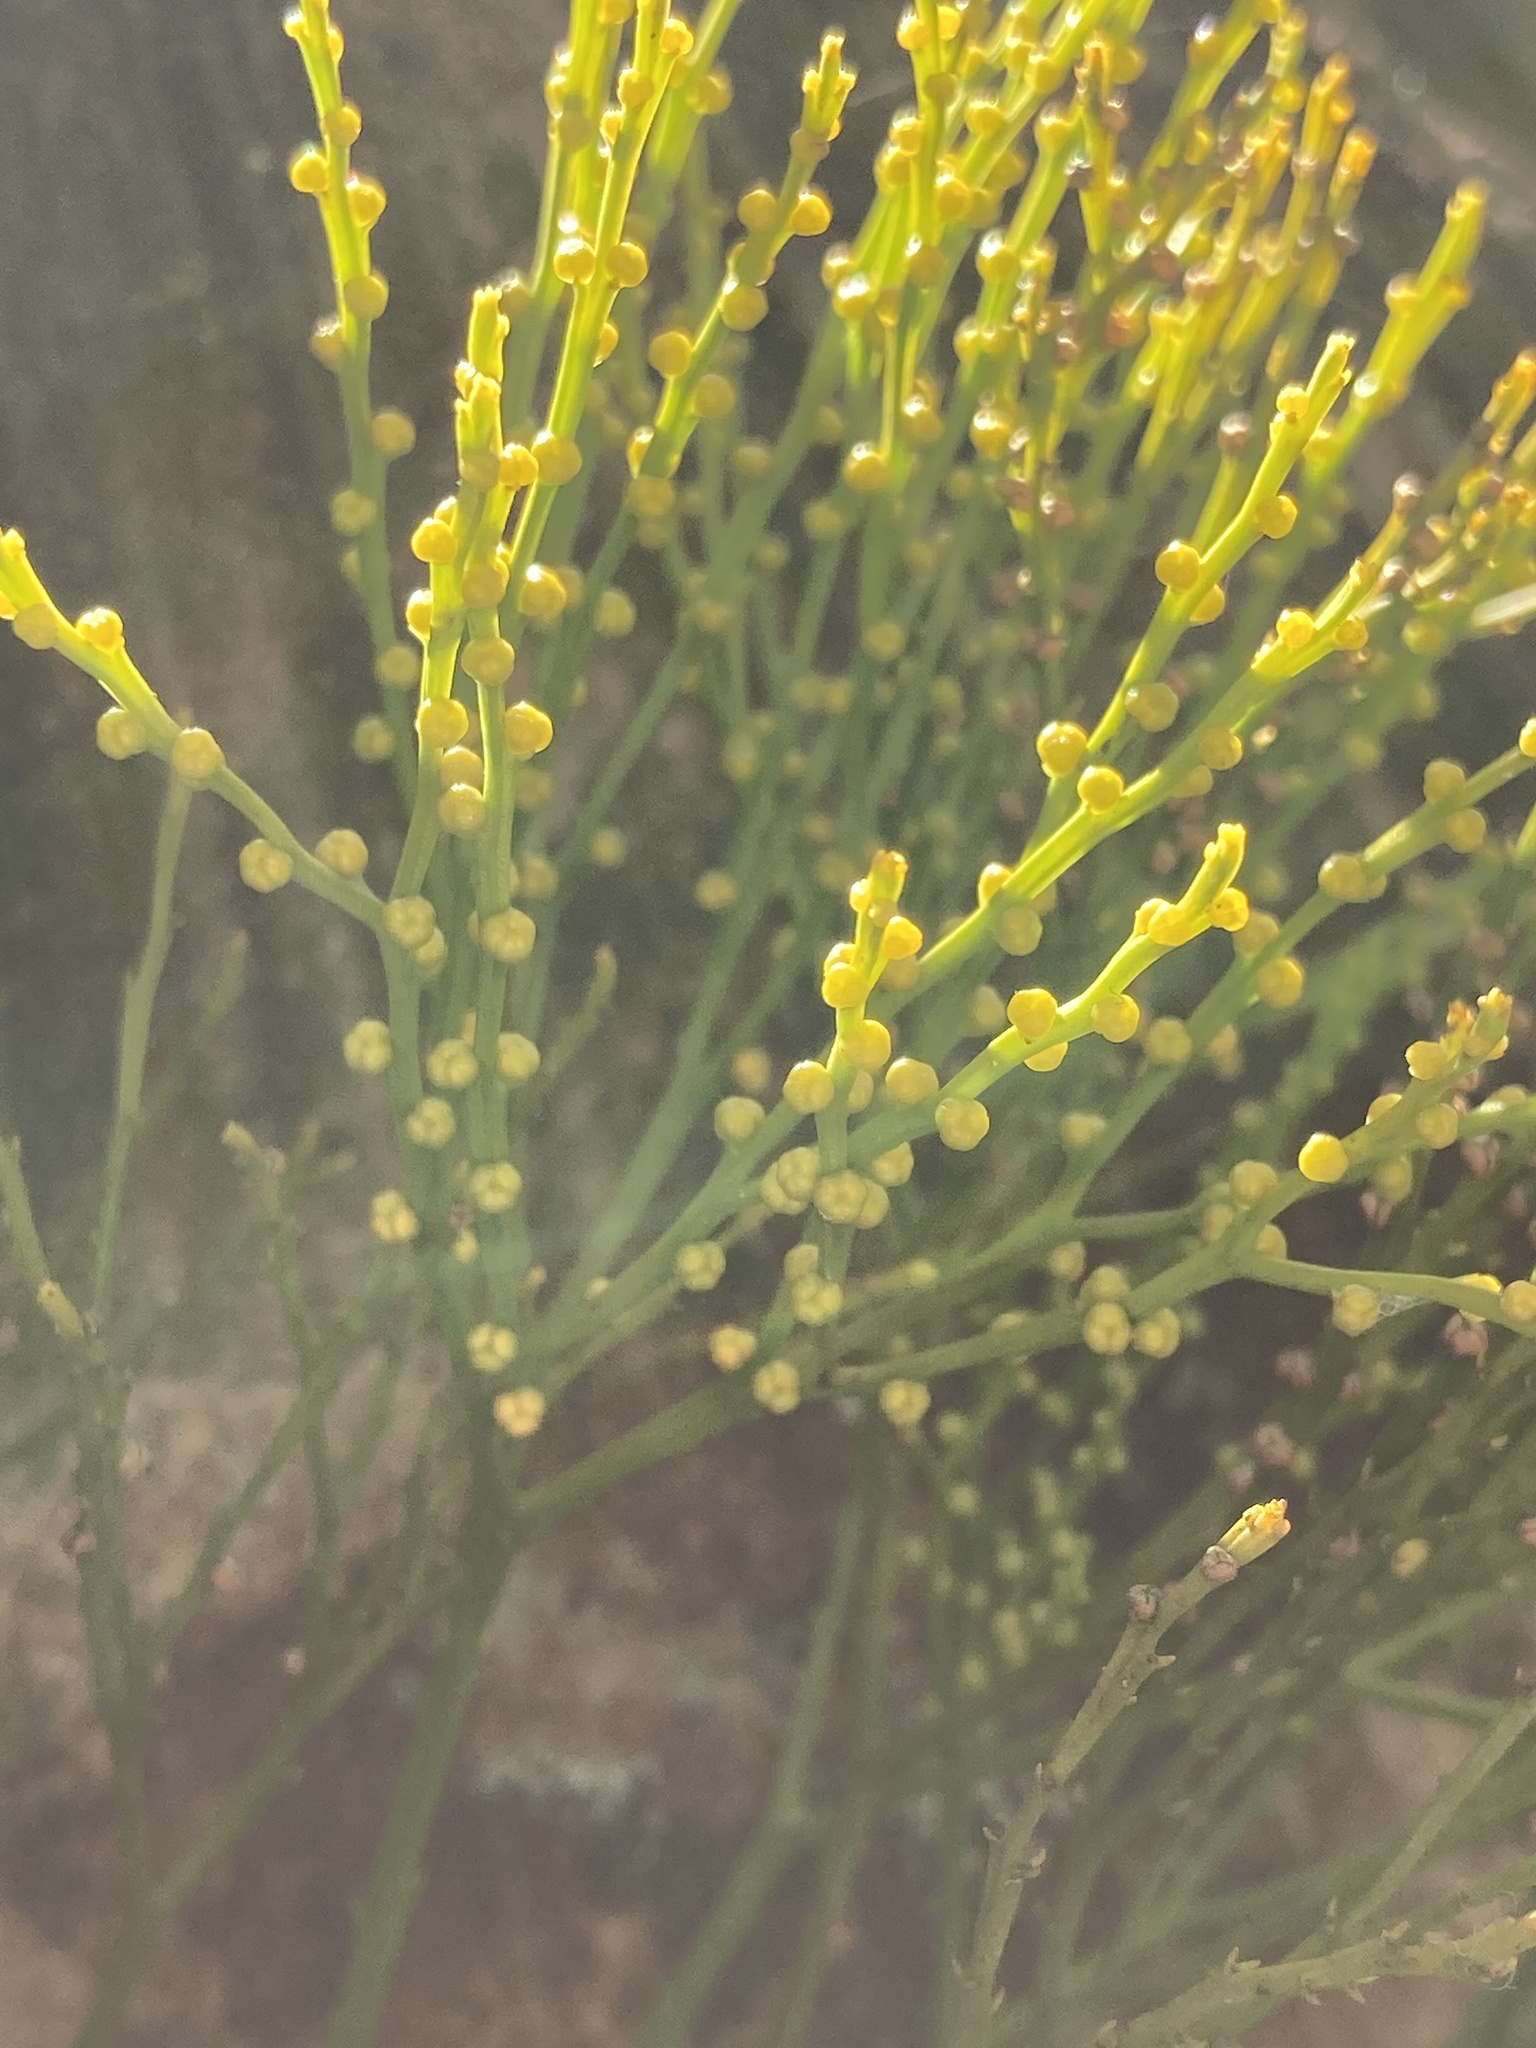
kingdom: Plantae
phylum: Tracheophyta
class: Polypodiopsida
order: Psilotales
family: Psilotaceae
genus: Psilotum
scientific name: Psilotum nudum
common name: Skeleton fork fern
